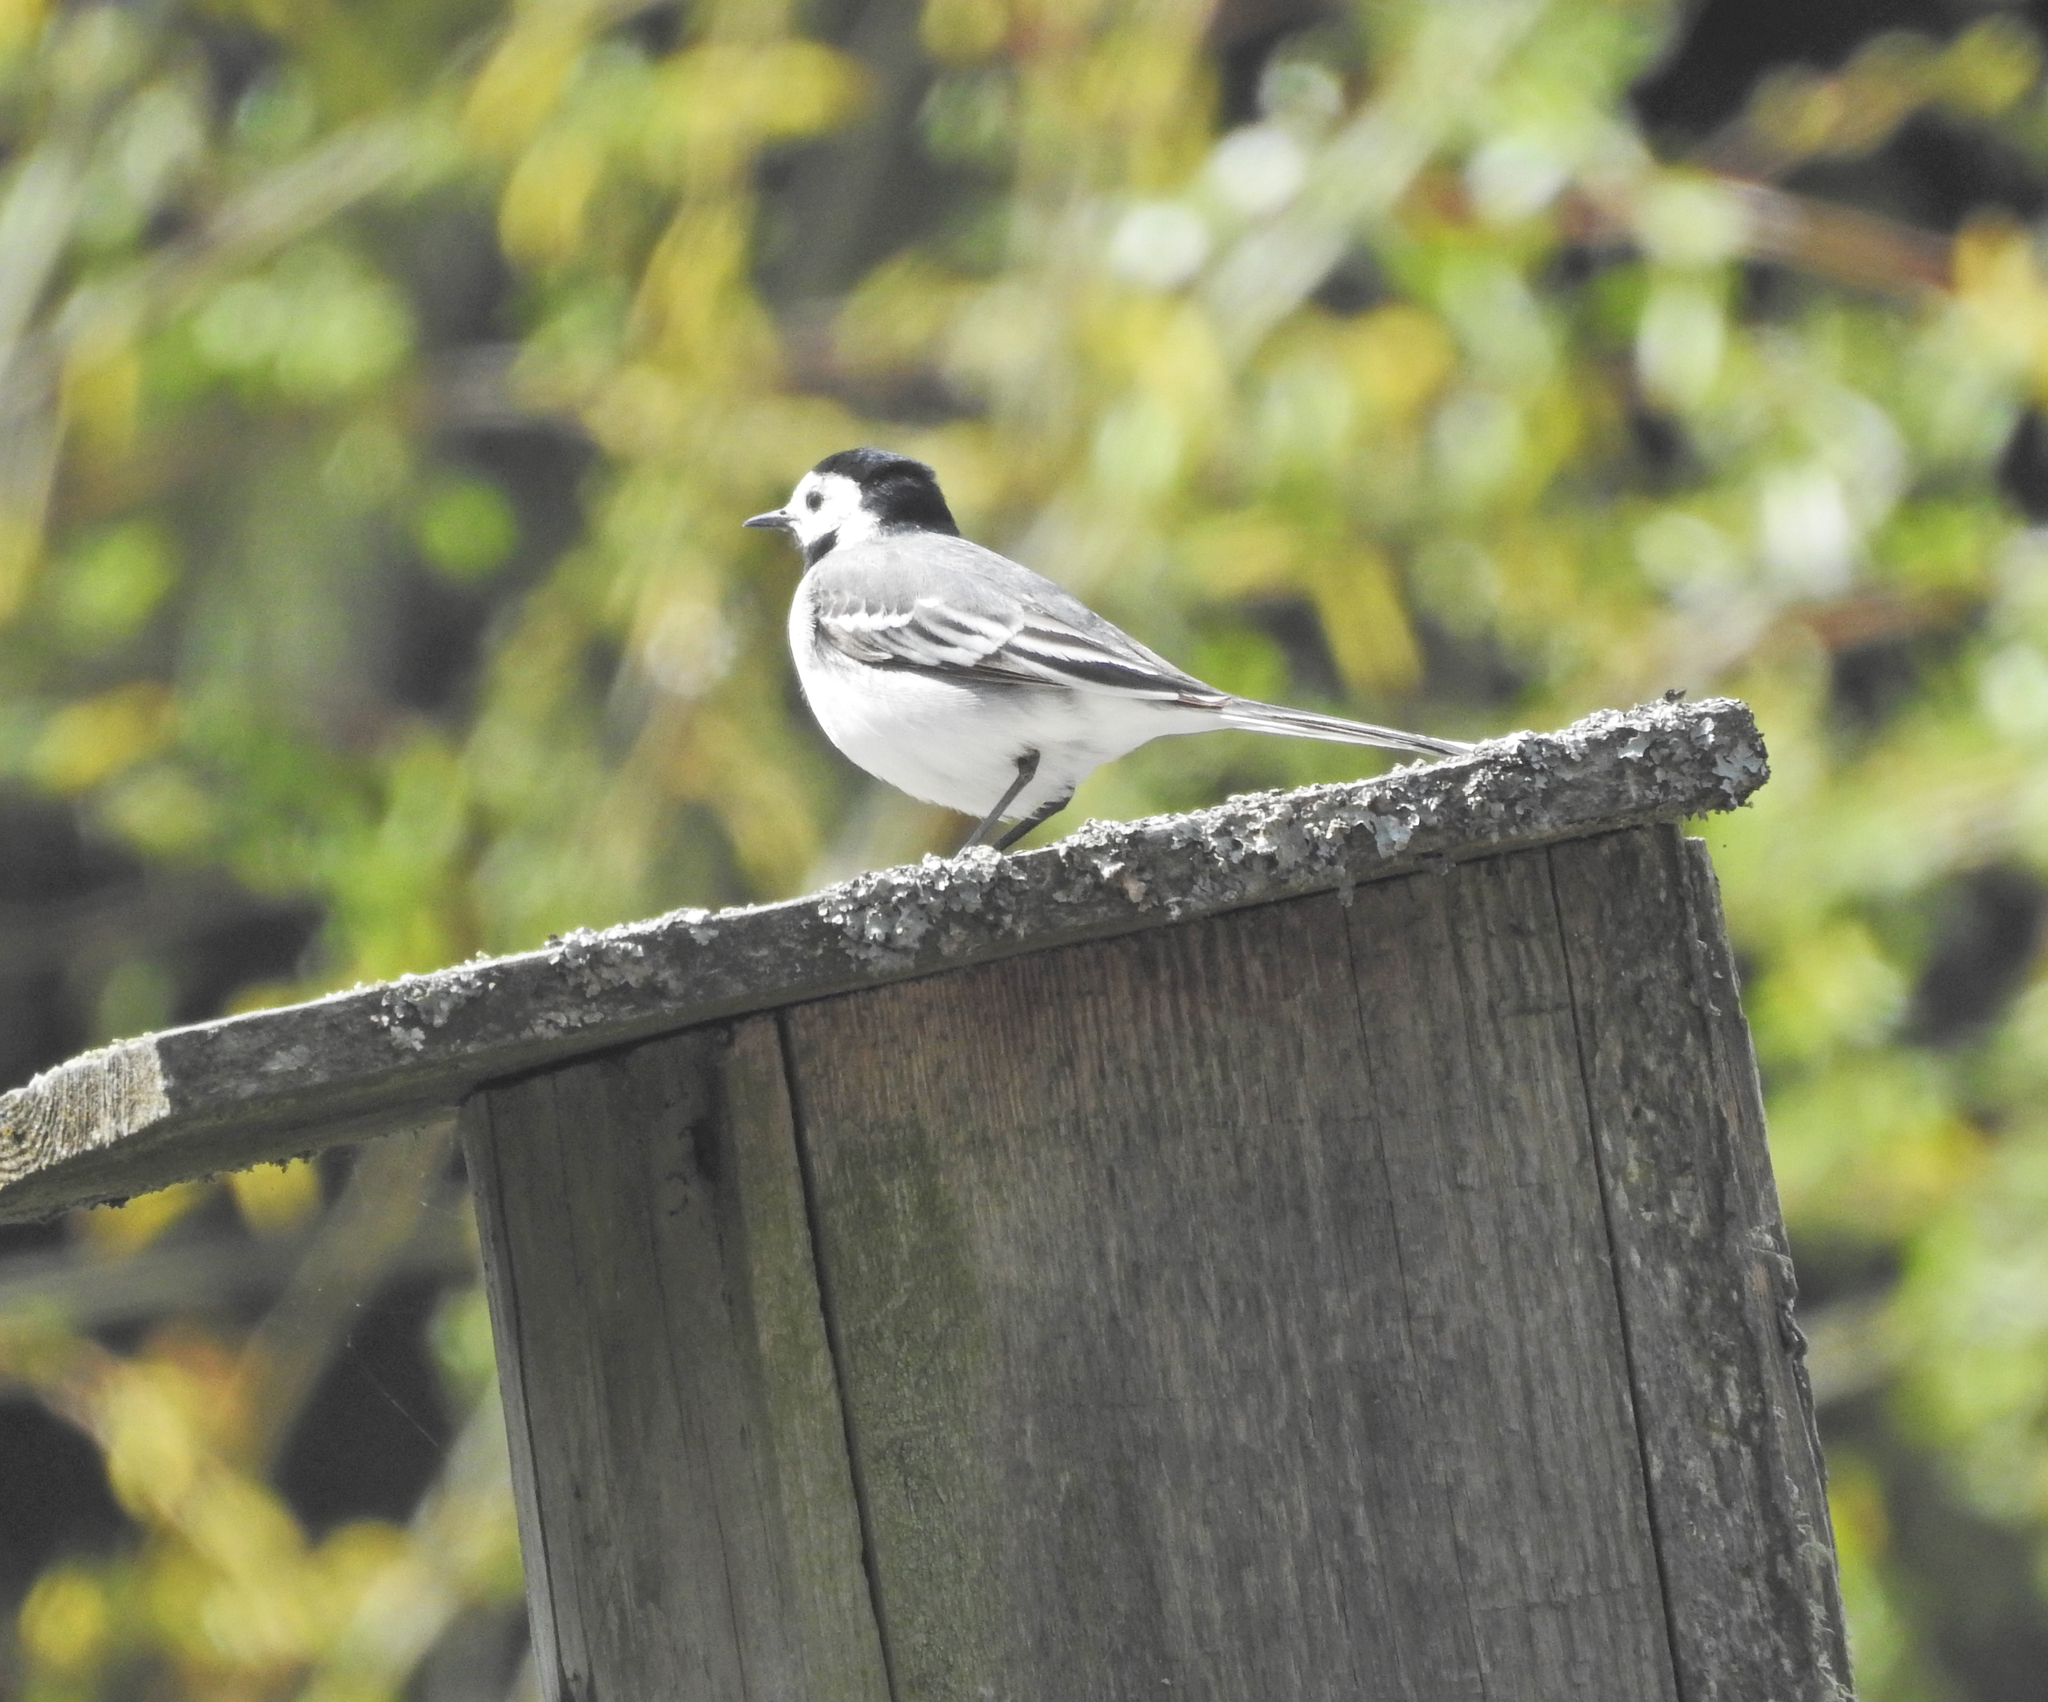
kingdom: Animalia
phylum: Chordata
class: Aves
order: Passeriformes
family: Motacillidae
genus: Motacilla
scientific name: Motacilla alba
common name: White wagtail
